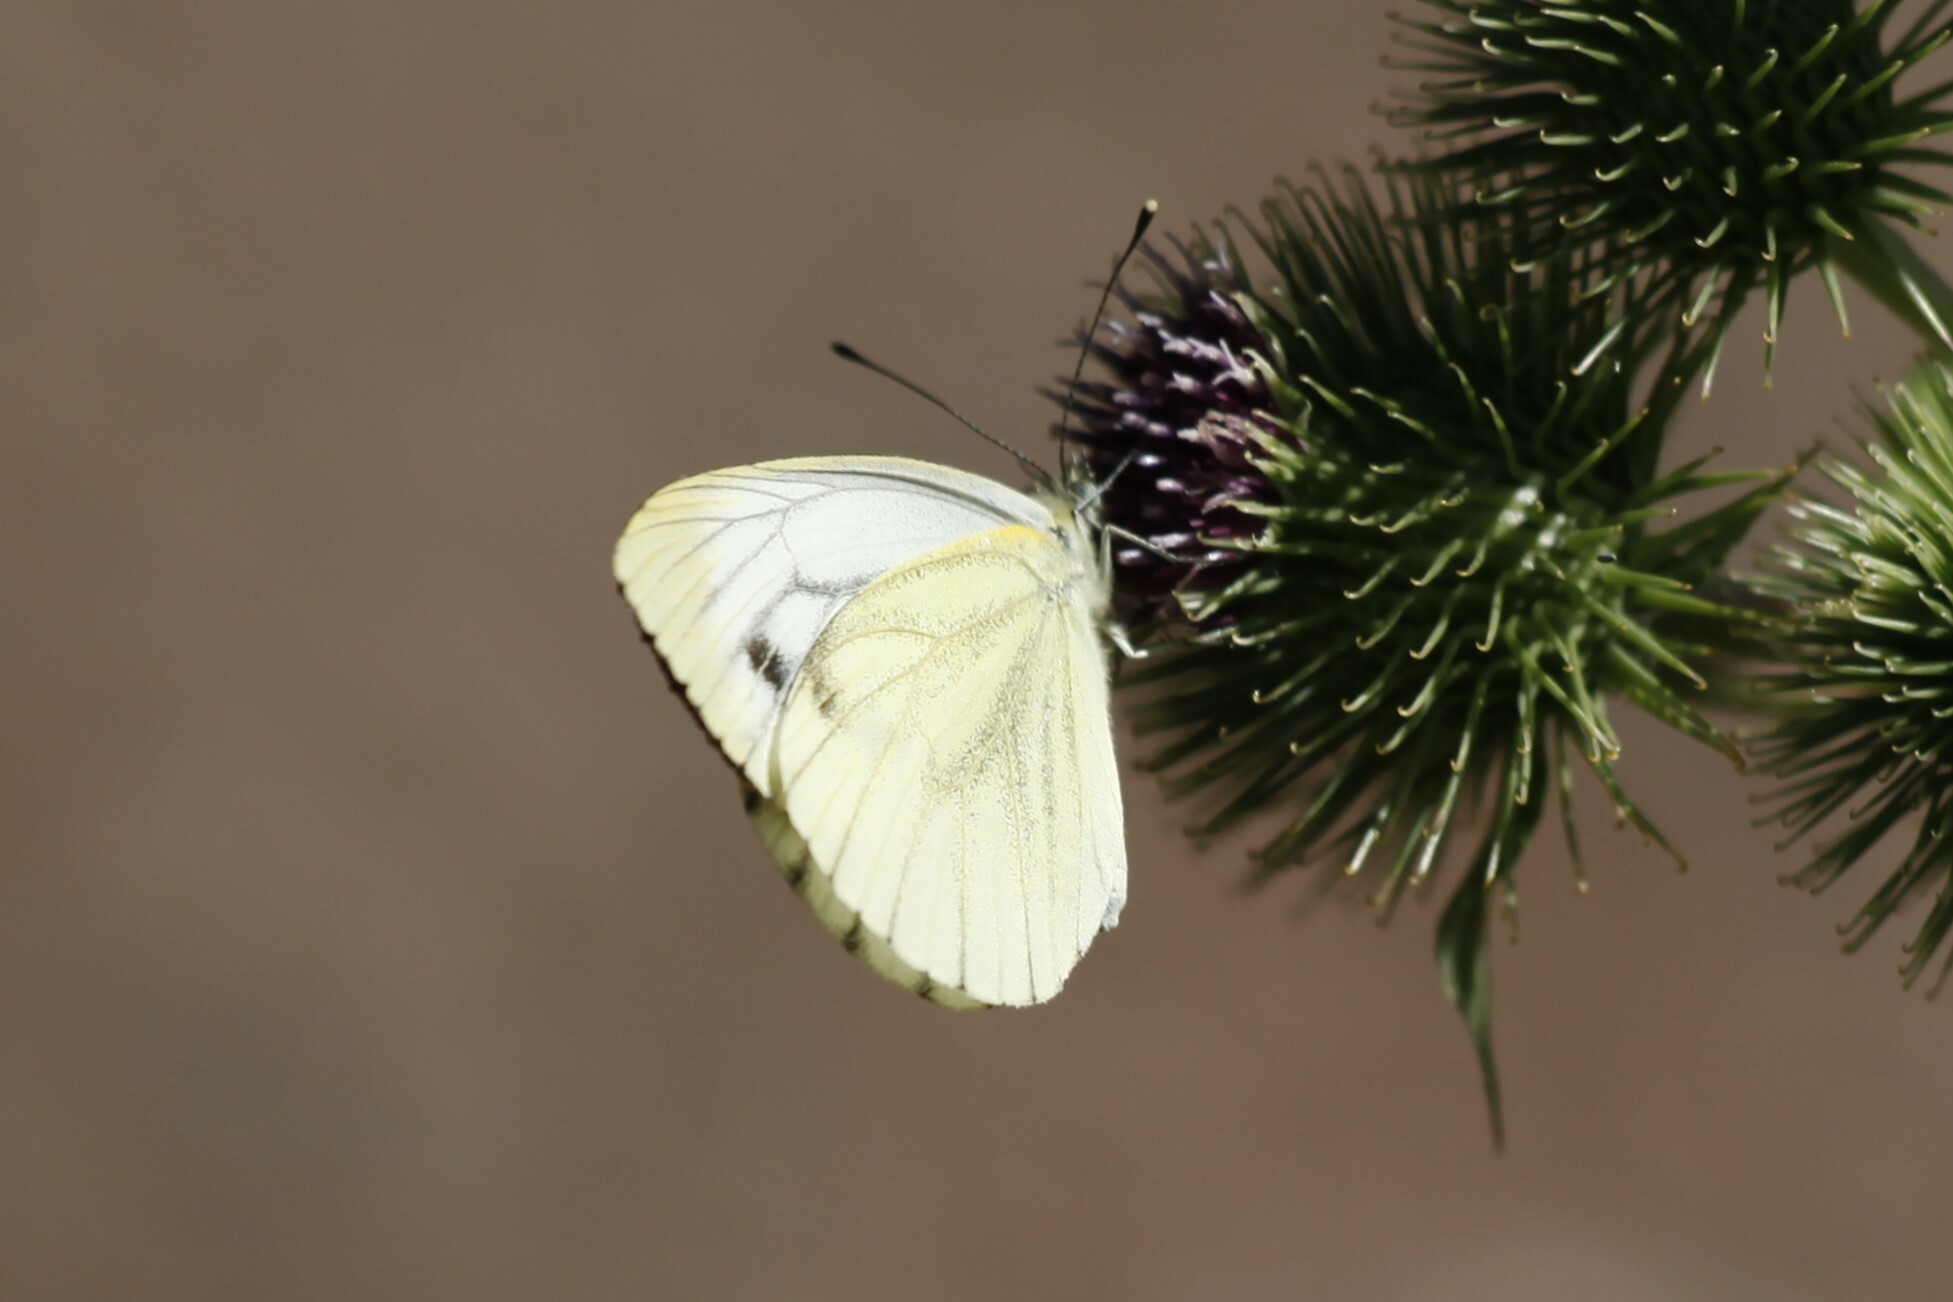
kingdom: Animalia
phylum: Arthropoda
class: Insecta
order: Lepidoptera
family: Pieridae
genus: Pieris
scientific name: Pieris napi
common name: Green-veined white
